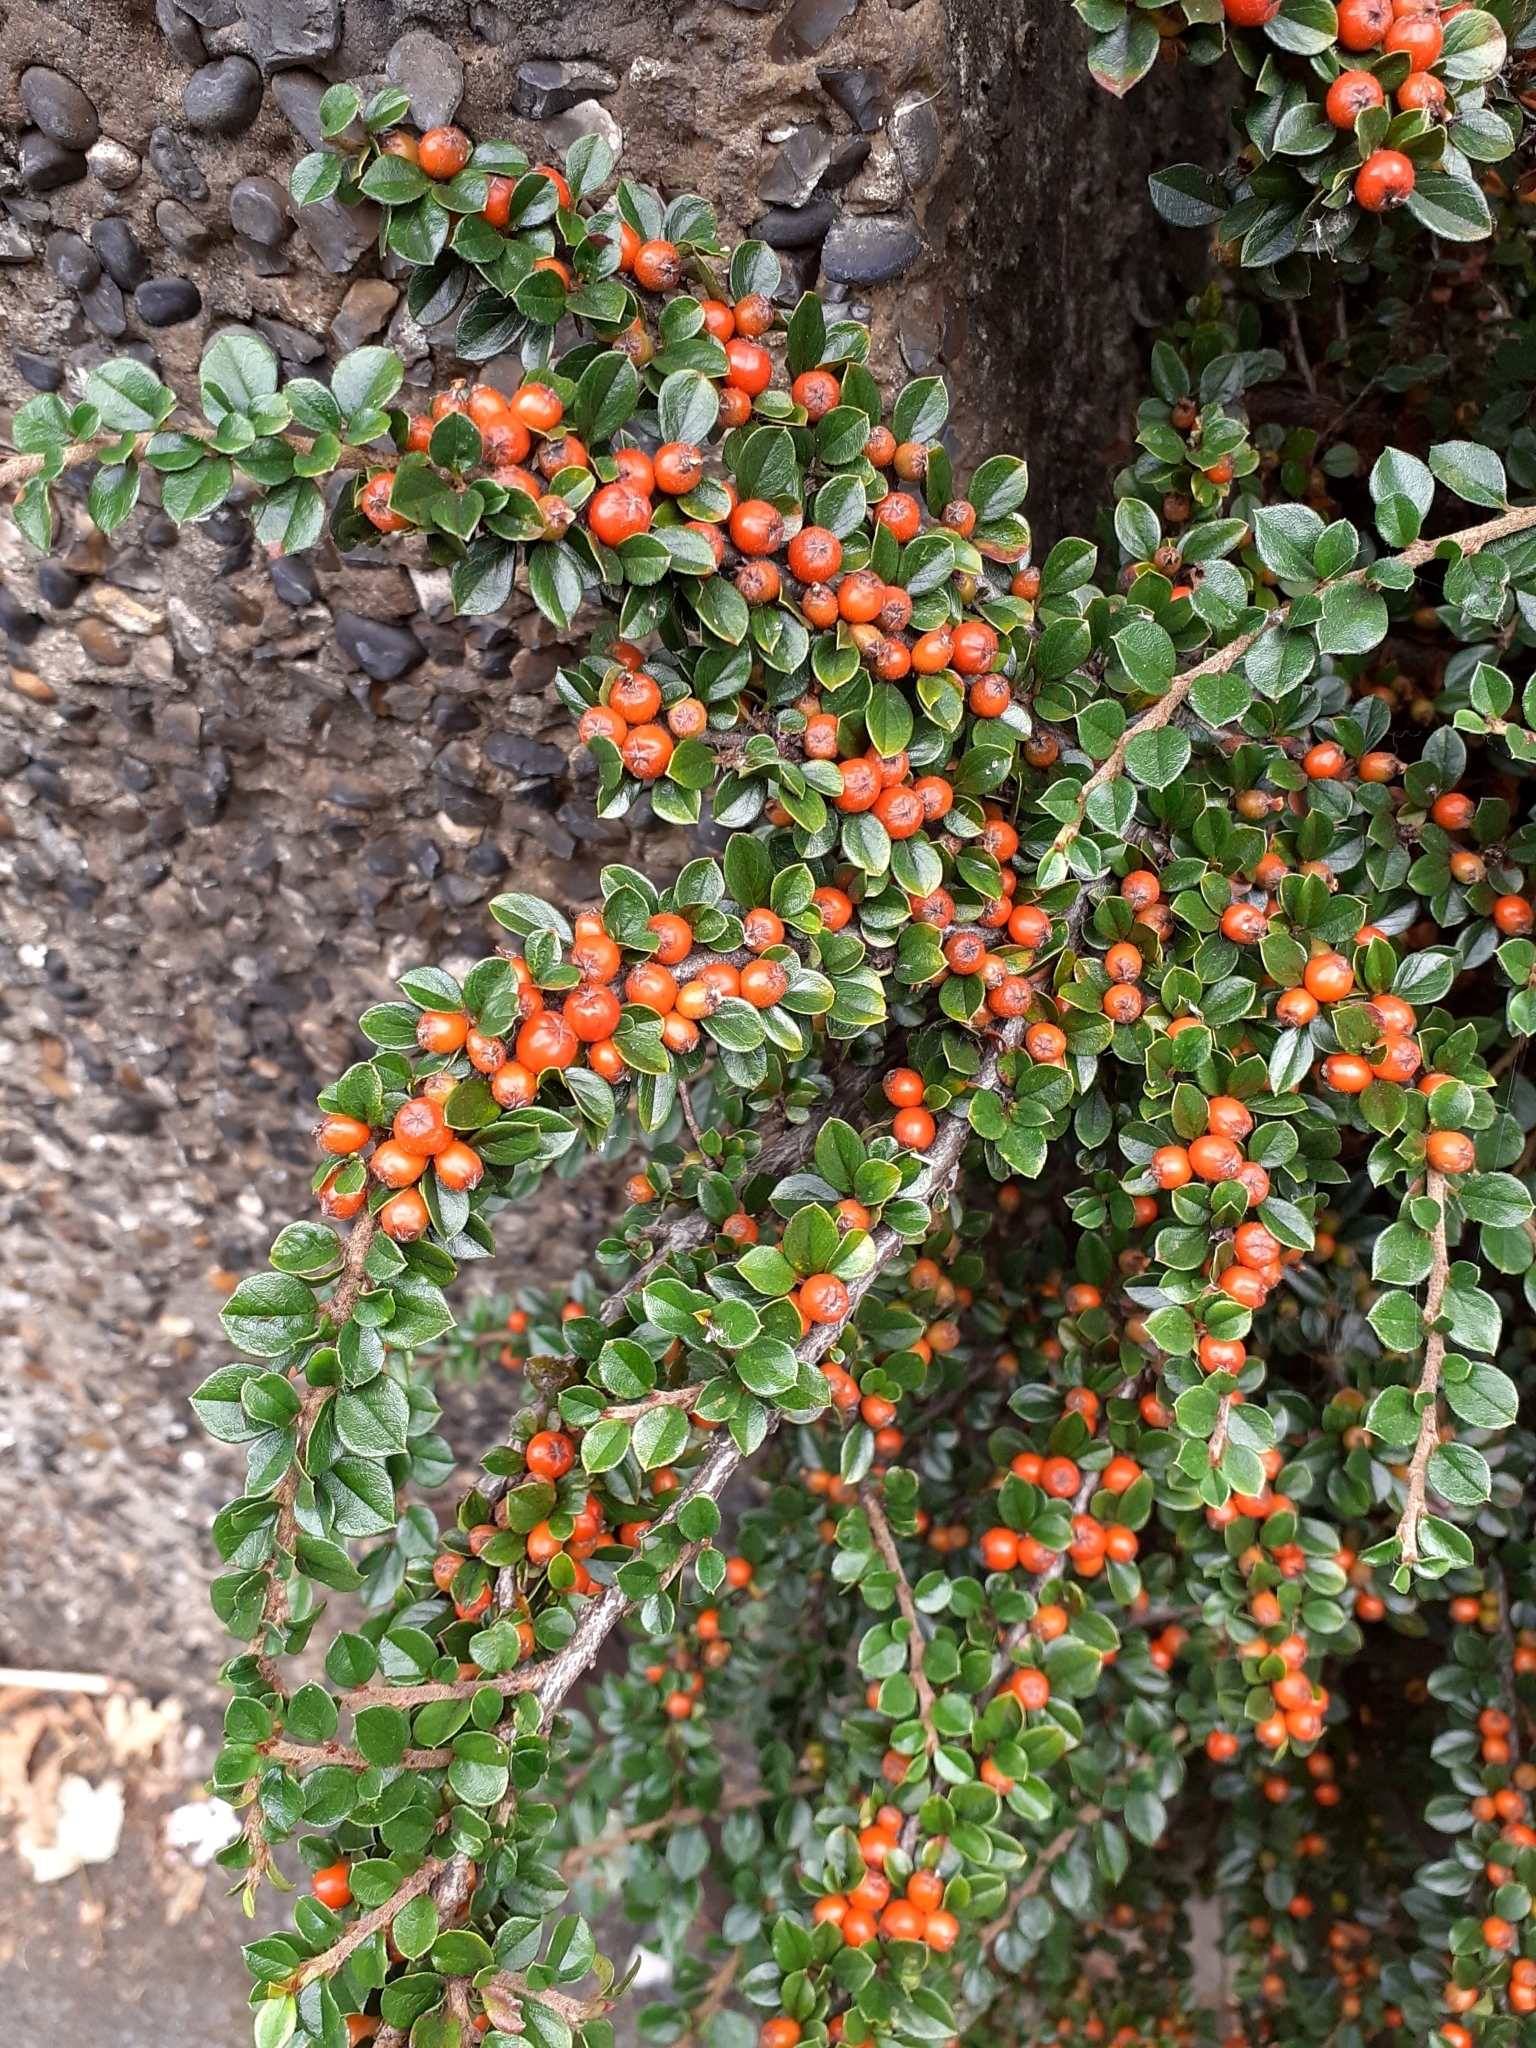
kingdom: Plantae
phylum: Tracheophyta
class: Magnoliopsida
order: Rosales
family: Rosaceae
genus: Cotoneaster
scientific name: Cotoneaster horizontalis
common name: Wall cotoneaster
